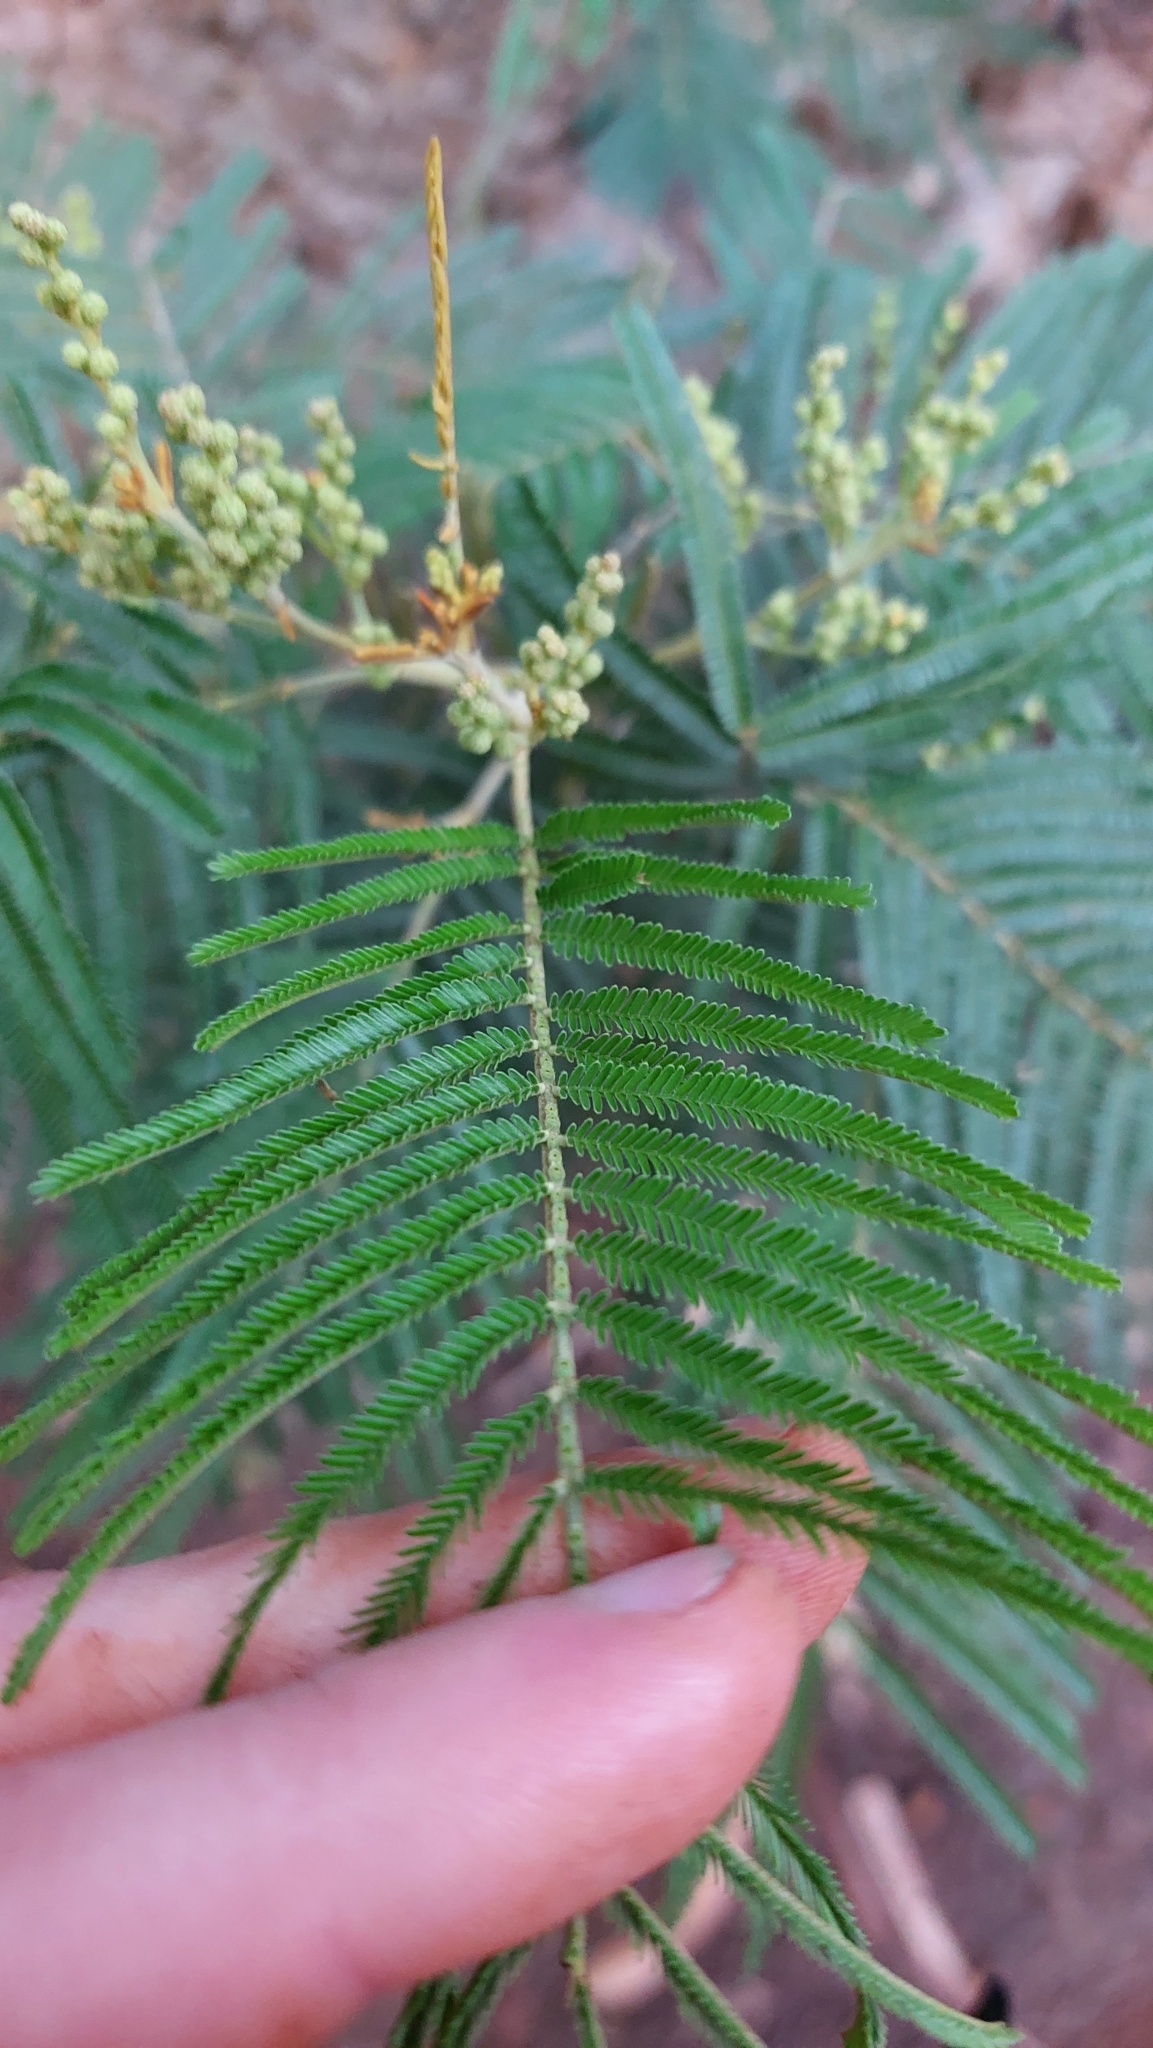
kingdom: Plantae
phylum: Tracheophyta
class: Magnoliopsida
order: Fabales
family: Fabaceae
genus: Acacia
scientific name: Acacia mearnsii
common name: Black wattle
